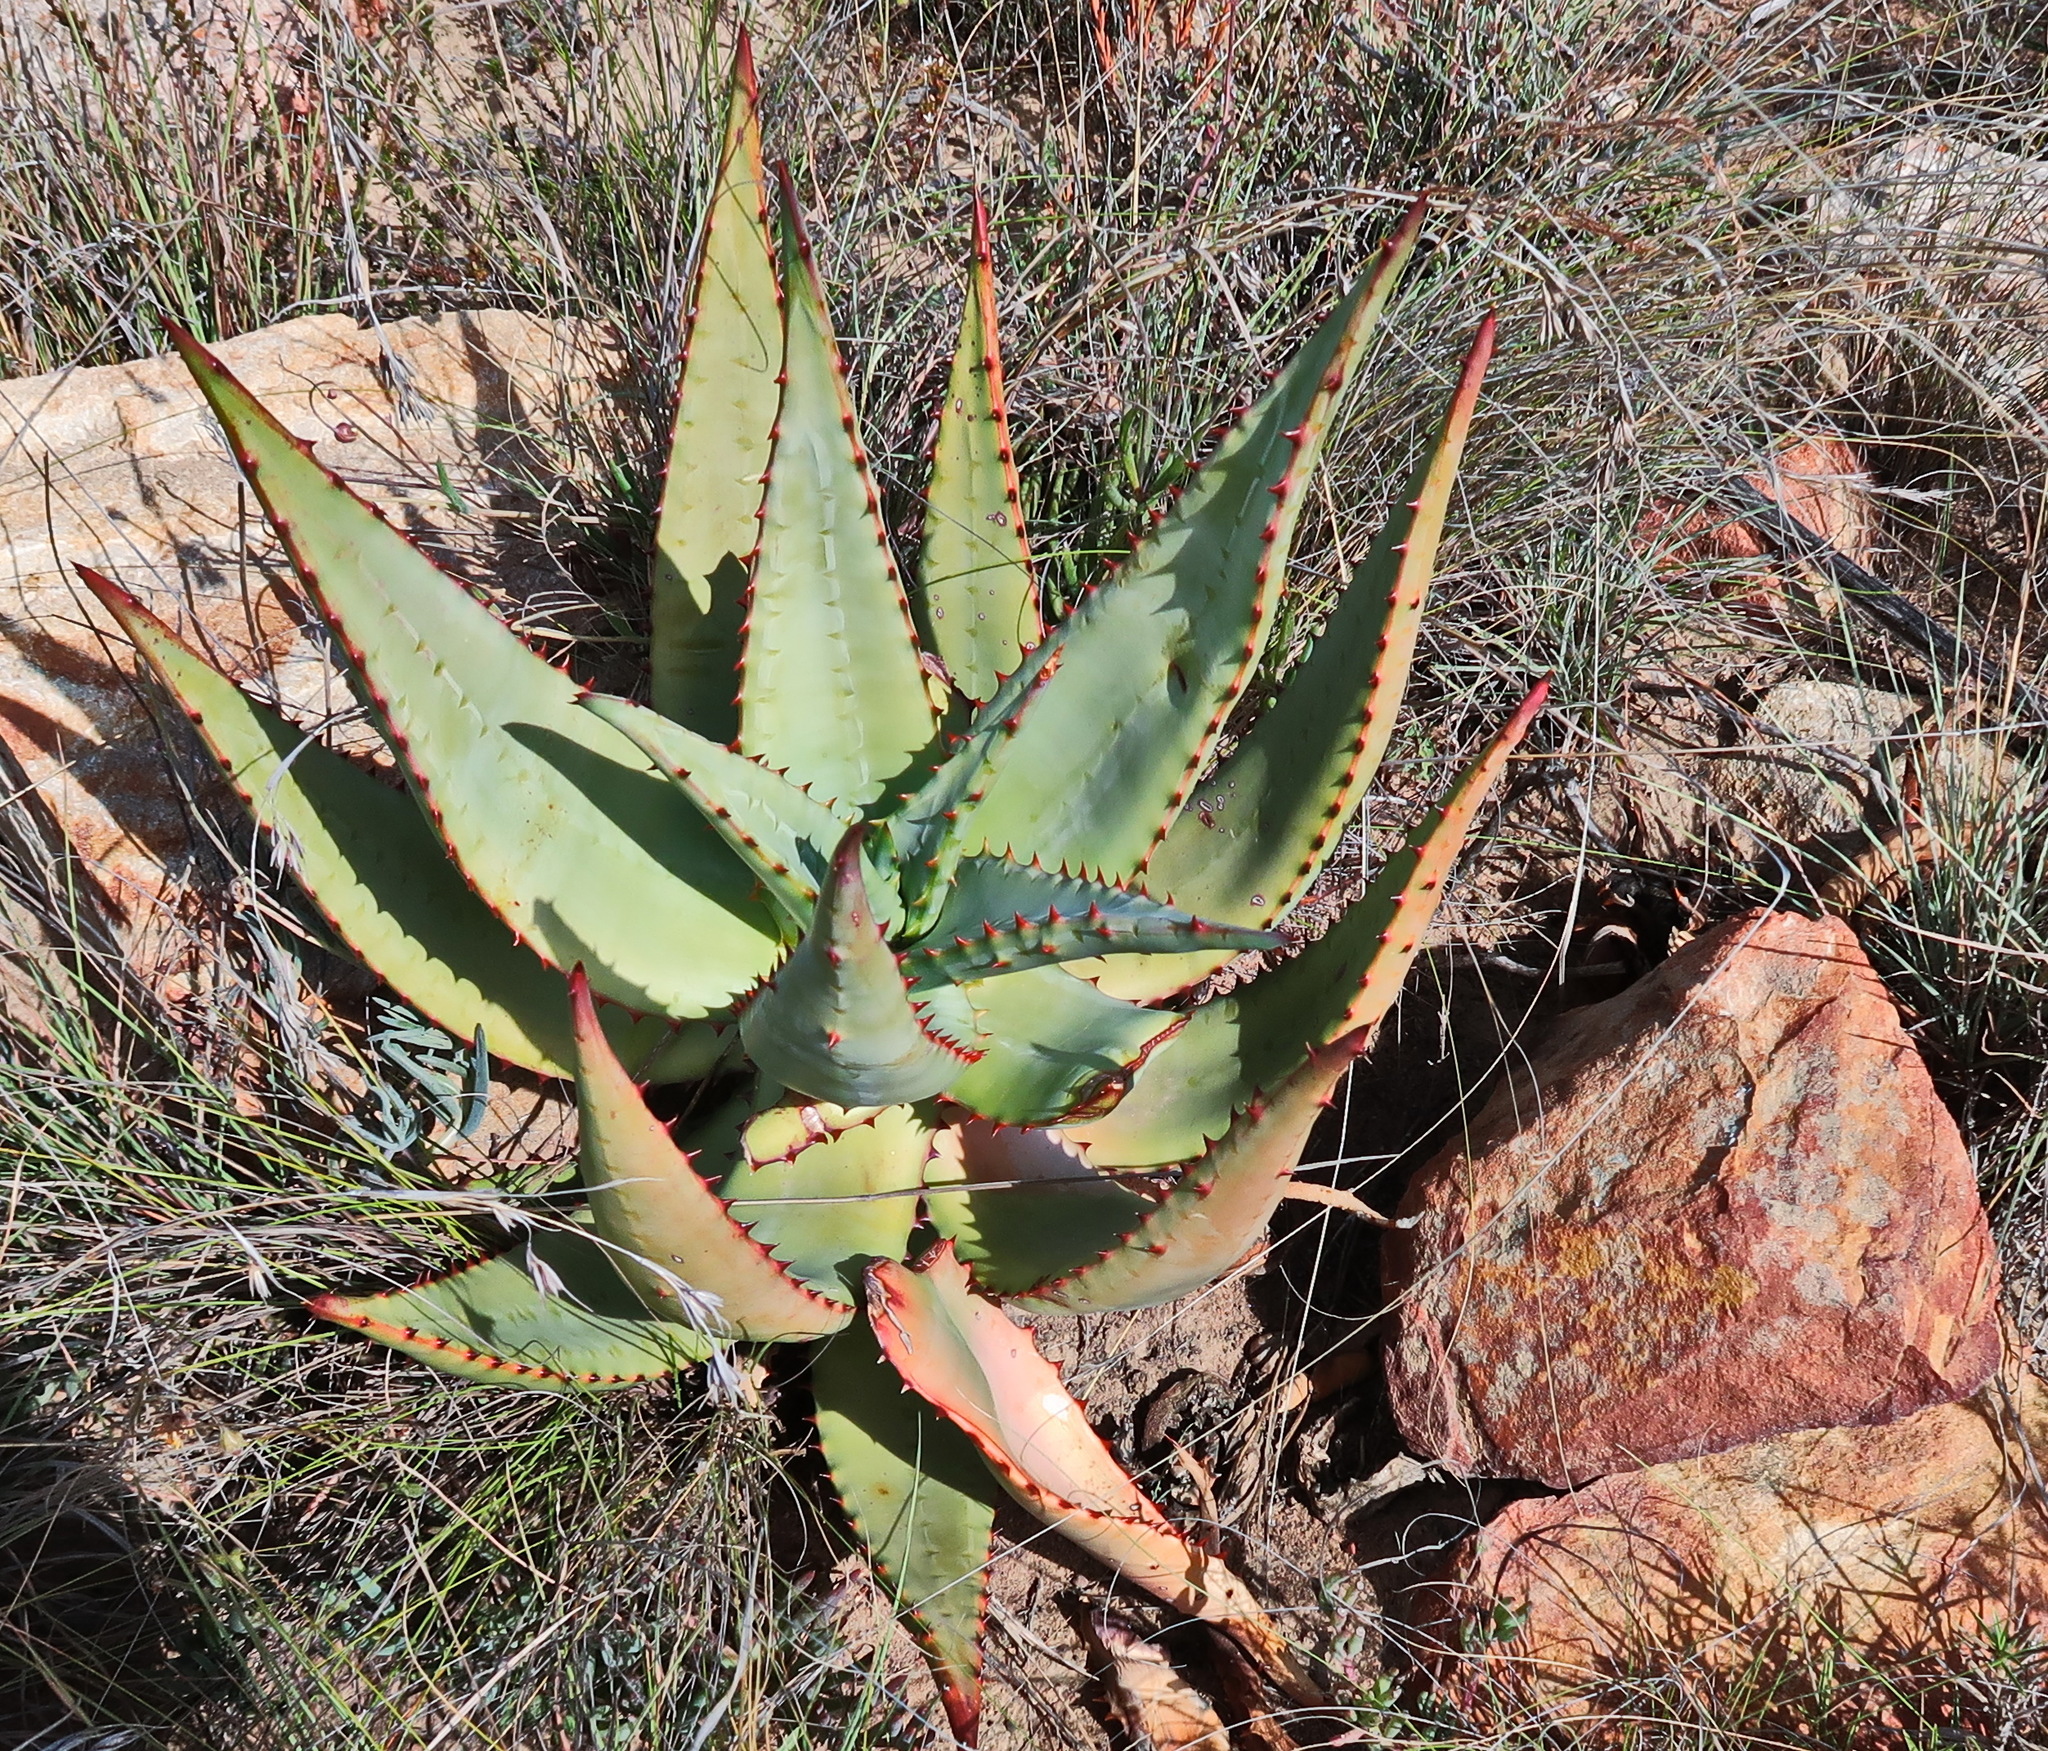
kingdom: Plantae
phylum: Tracheophyta
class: Liliopsida
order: Asparagales
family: Asphodelaceae
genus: Aloe
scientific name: Aloe ferox
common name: Bitter aloe
